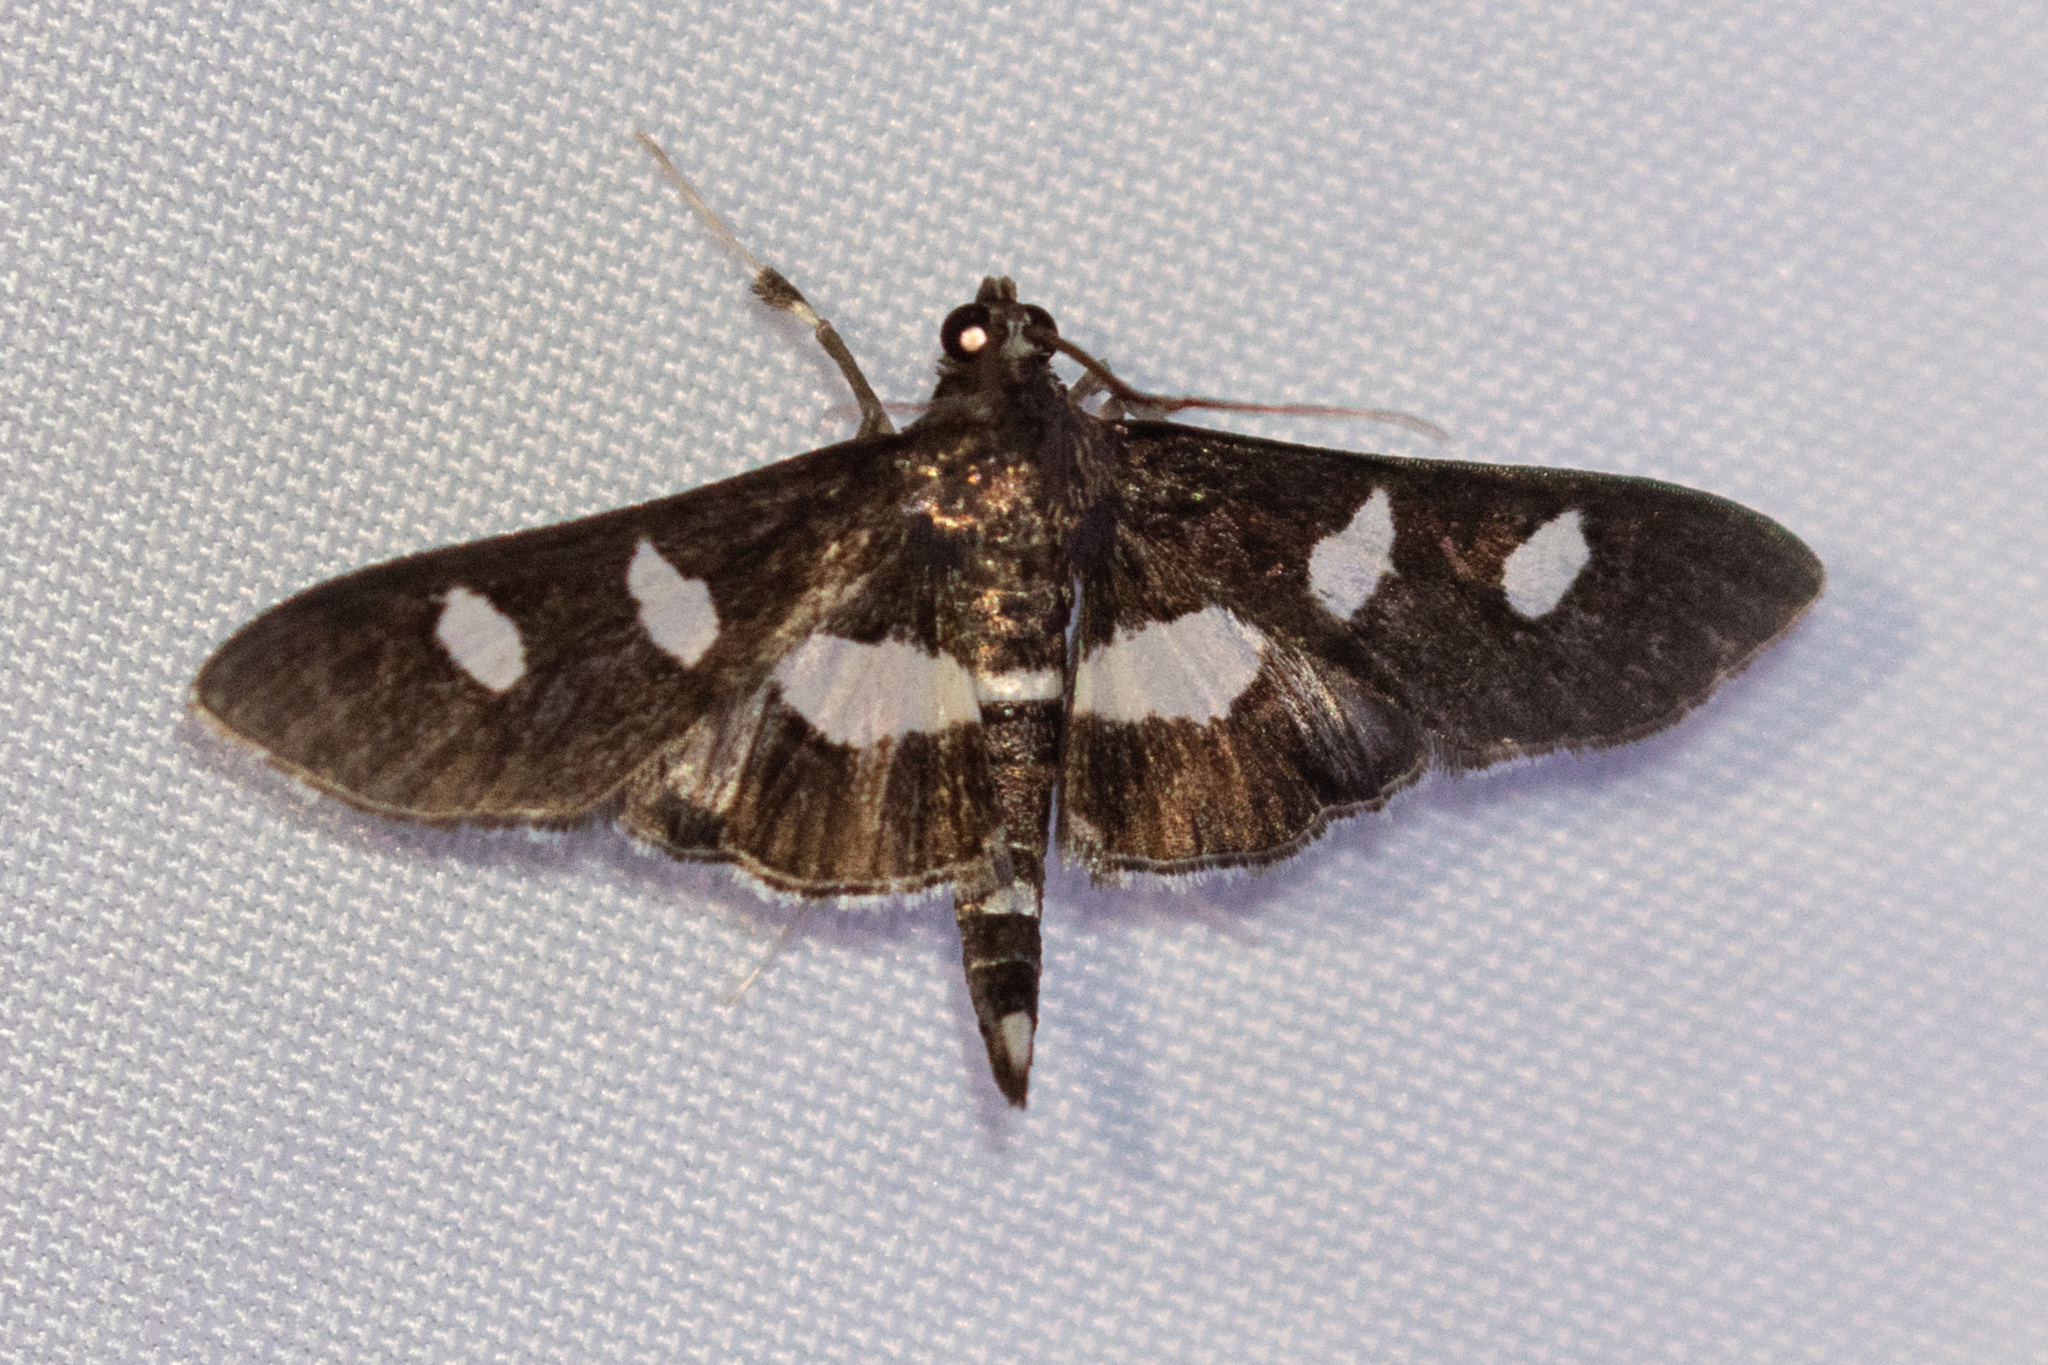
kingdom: Animalia
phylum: Arthropoda
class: Insecta
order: Lepidoptera
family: Crambidae
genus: Desmia
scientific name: Desmia
